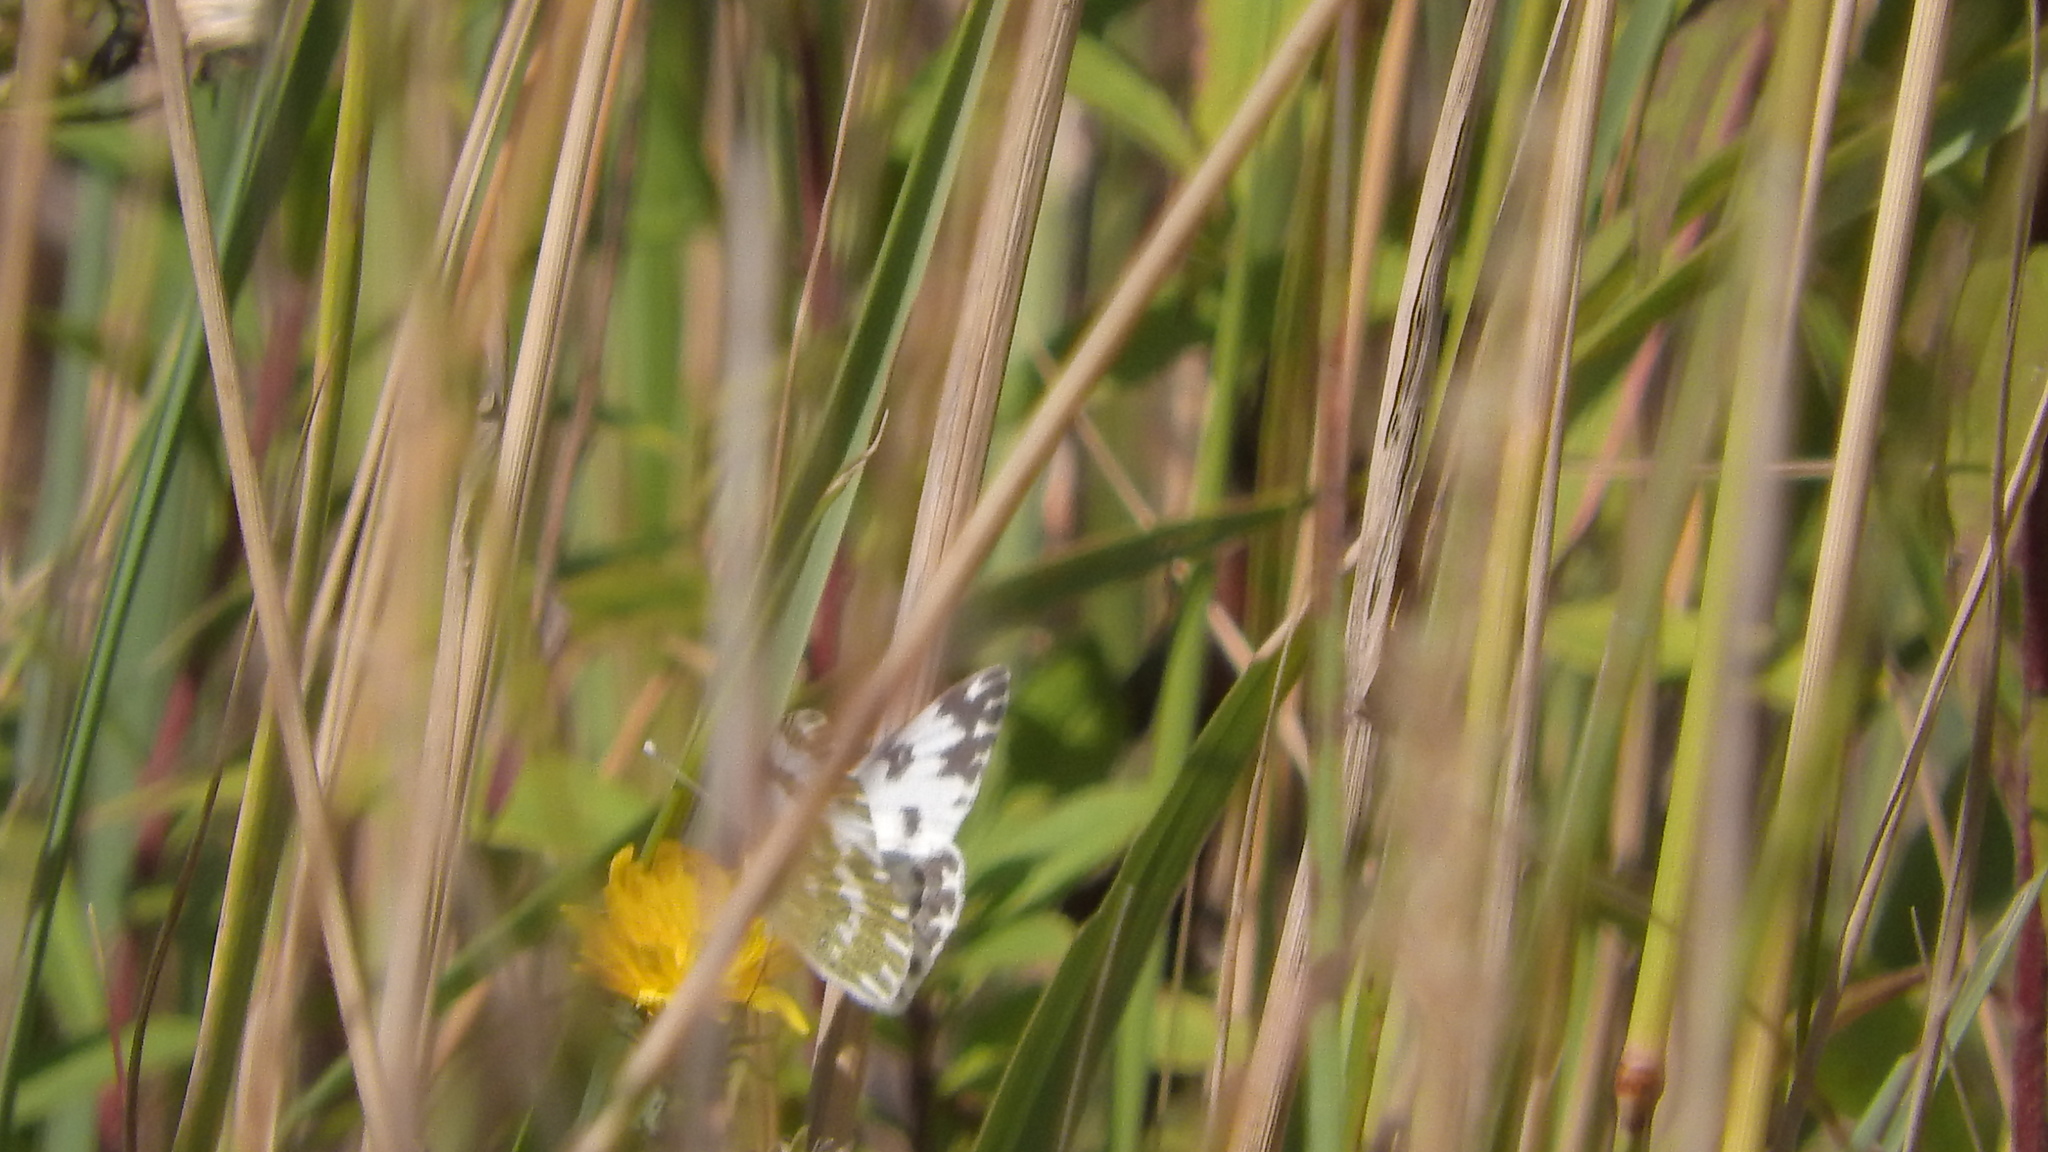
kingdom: Animalia
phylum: Arthropoda
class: Insecta
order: Lepidoptera
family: Pieridae
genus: Pontia
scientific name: Pontia edusa
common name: Eastern bath white
